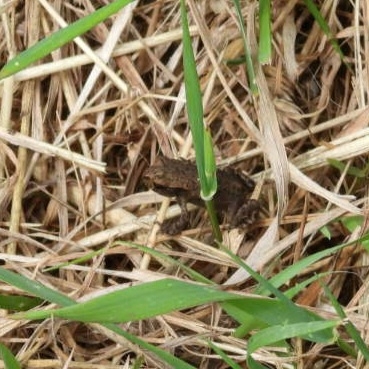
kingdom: Animalia
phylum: Chordata
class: Amphibia
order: Anura
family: Bufonidae
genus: Bufo
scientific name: Bufo bufo
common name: Common toad
